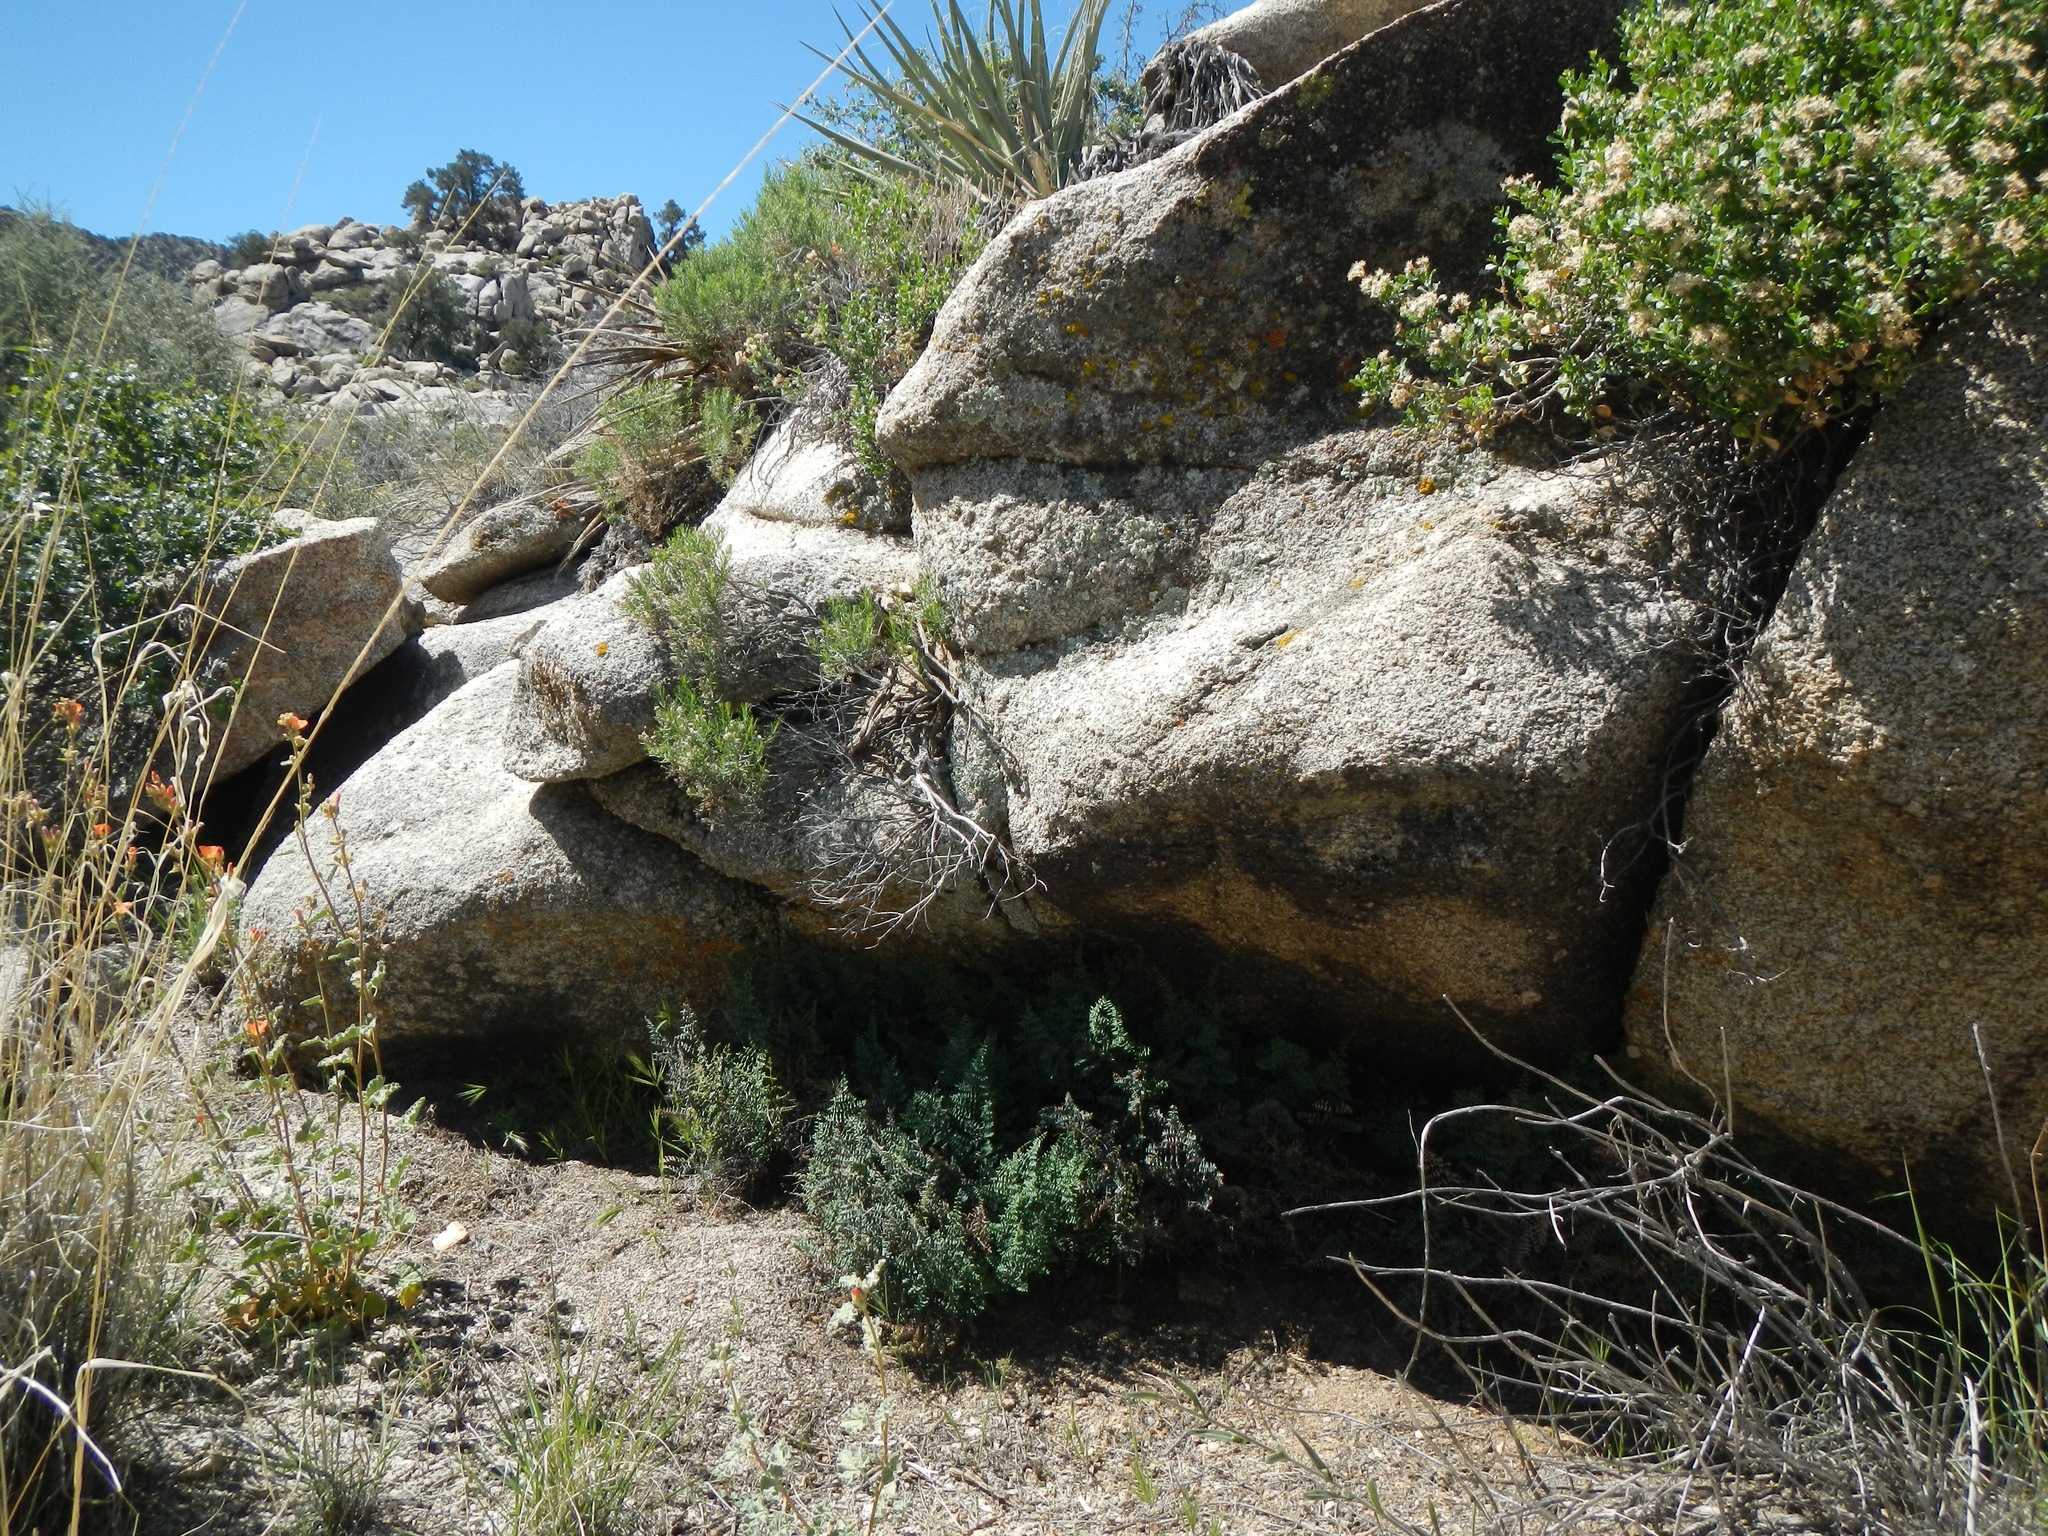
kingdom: Plantae
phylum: Tracheophyta
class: Polypodiopsida
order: Polypodiales
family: Pteridaceae
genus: Pellaea
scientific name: Pellaea truncata
